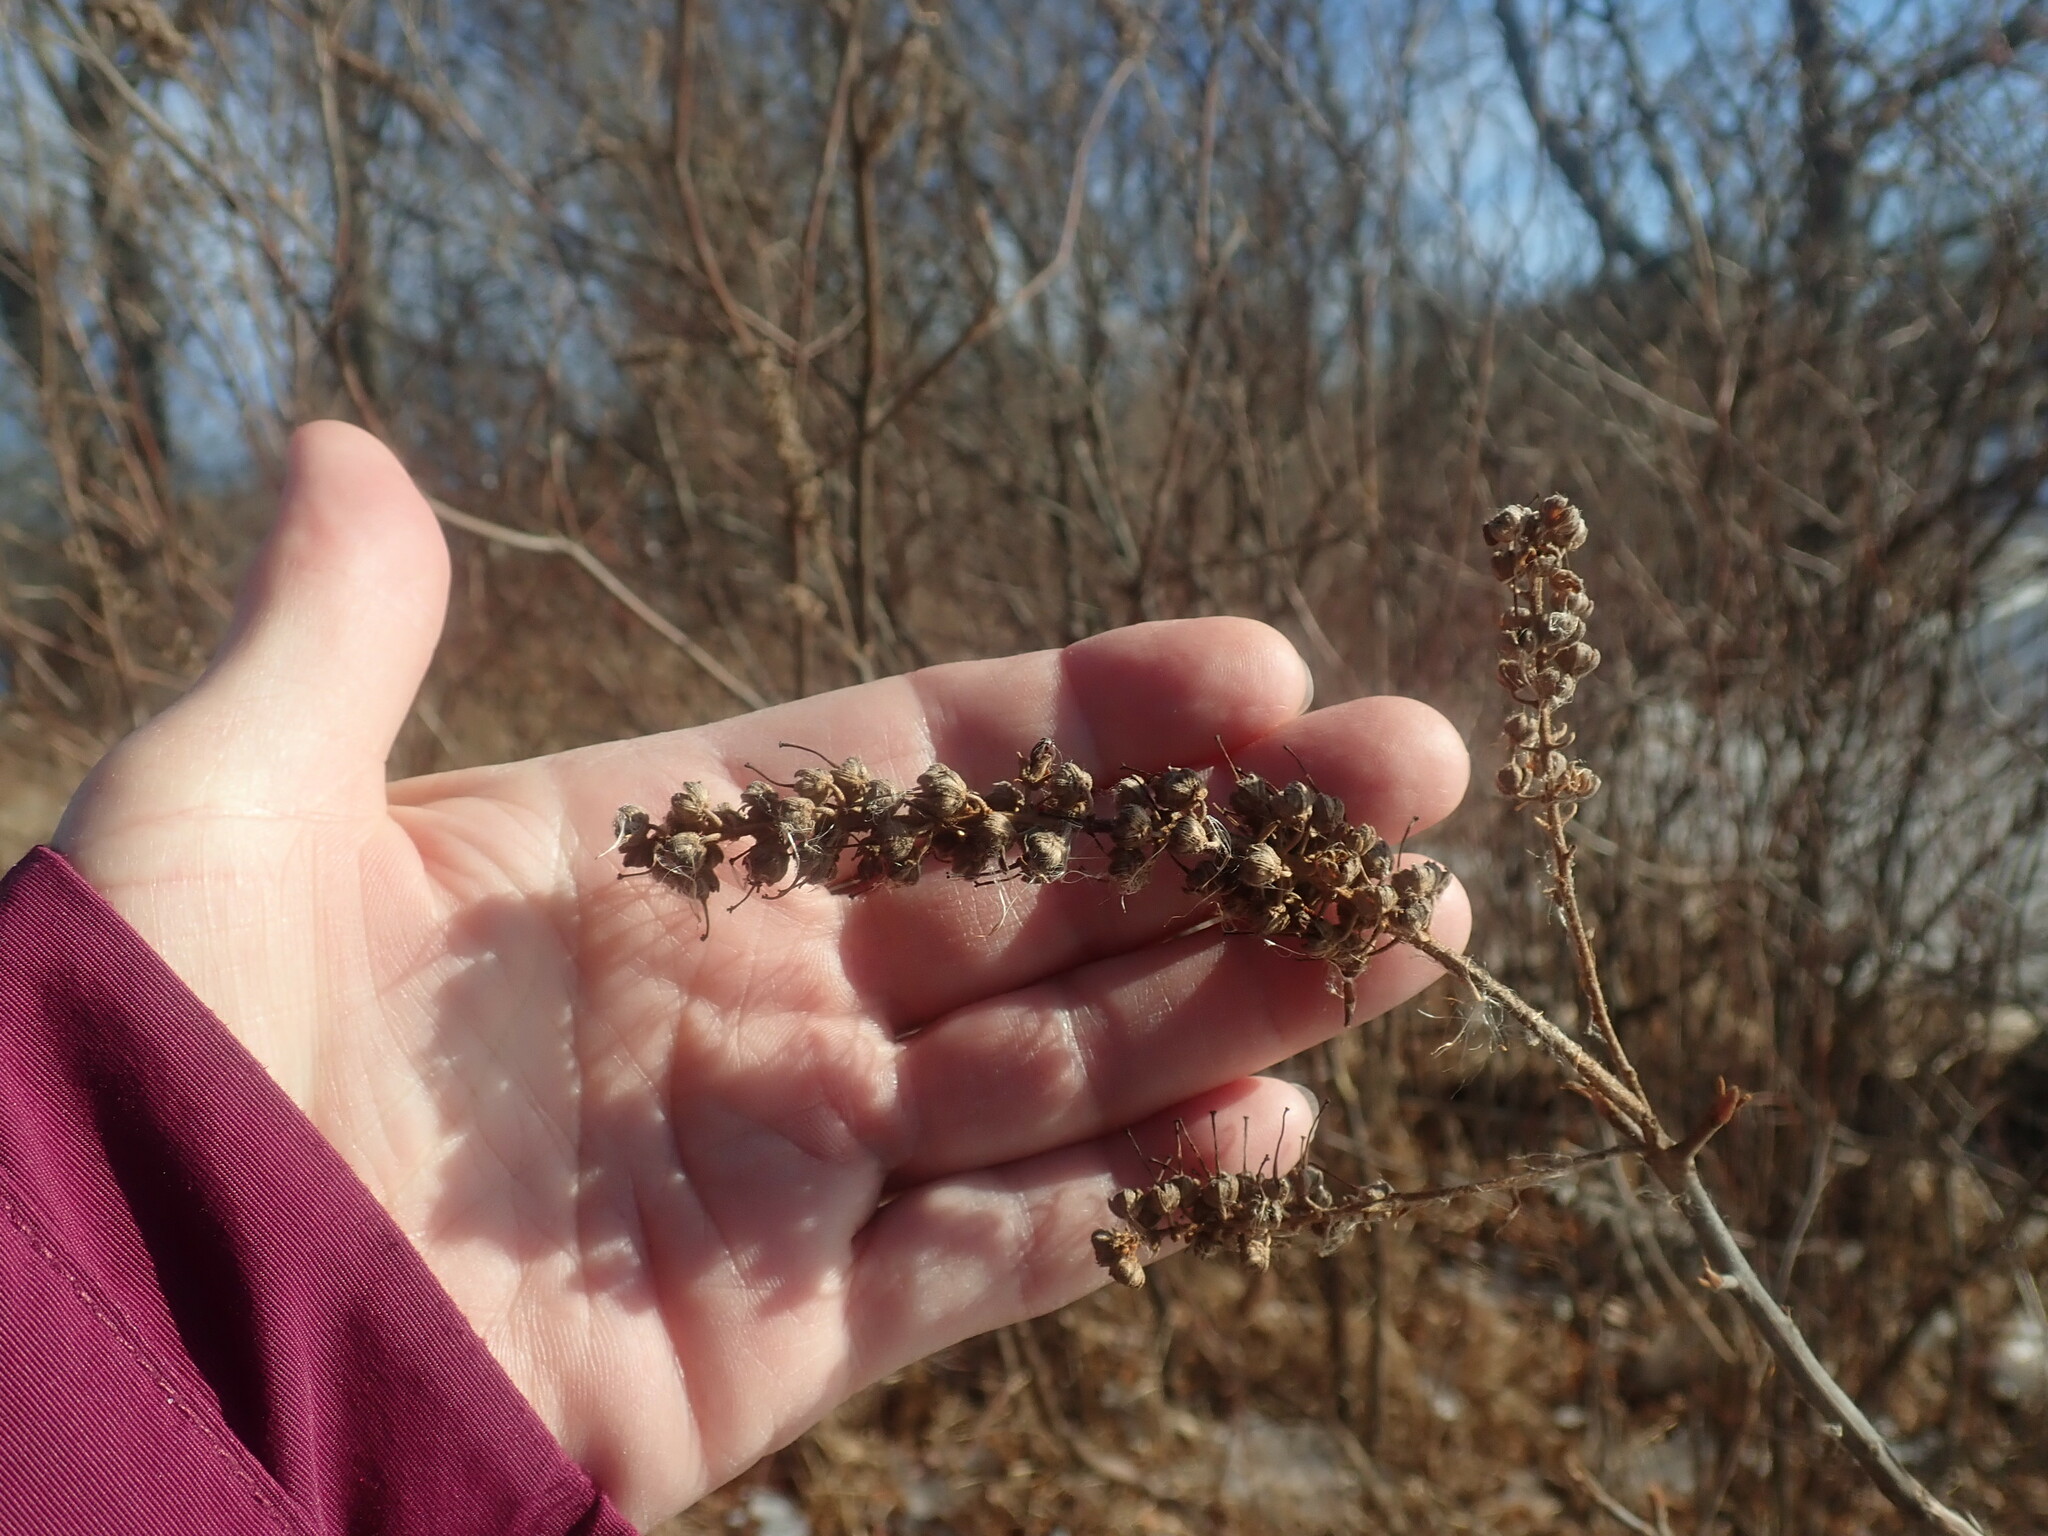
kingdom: Plantae
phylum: Tracheophyta
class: Magnoliopsida
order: Ericales
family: Clethraceae
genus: Clethra
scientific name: Clethra alnifolia
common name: Sweet pepperbush
